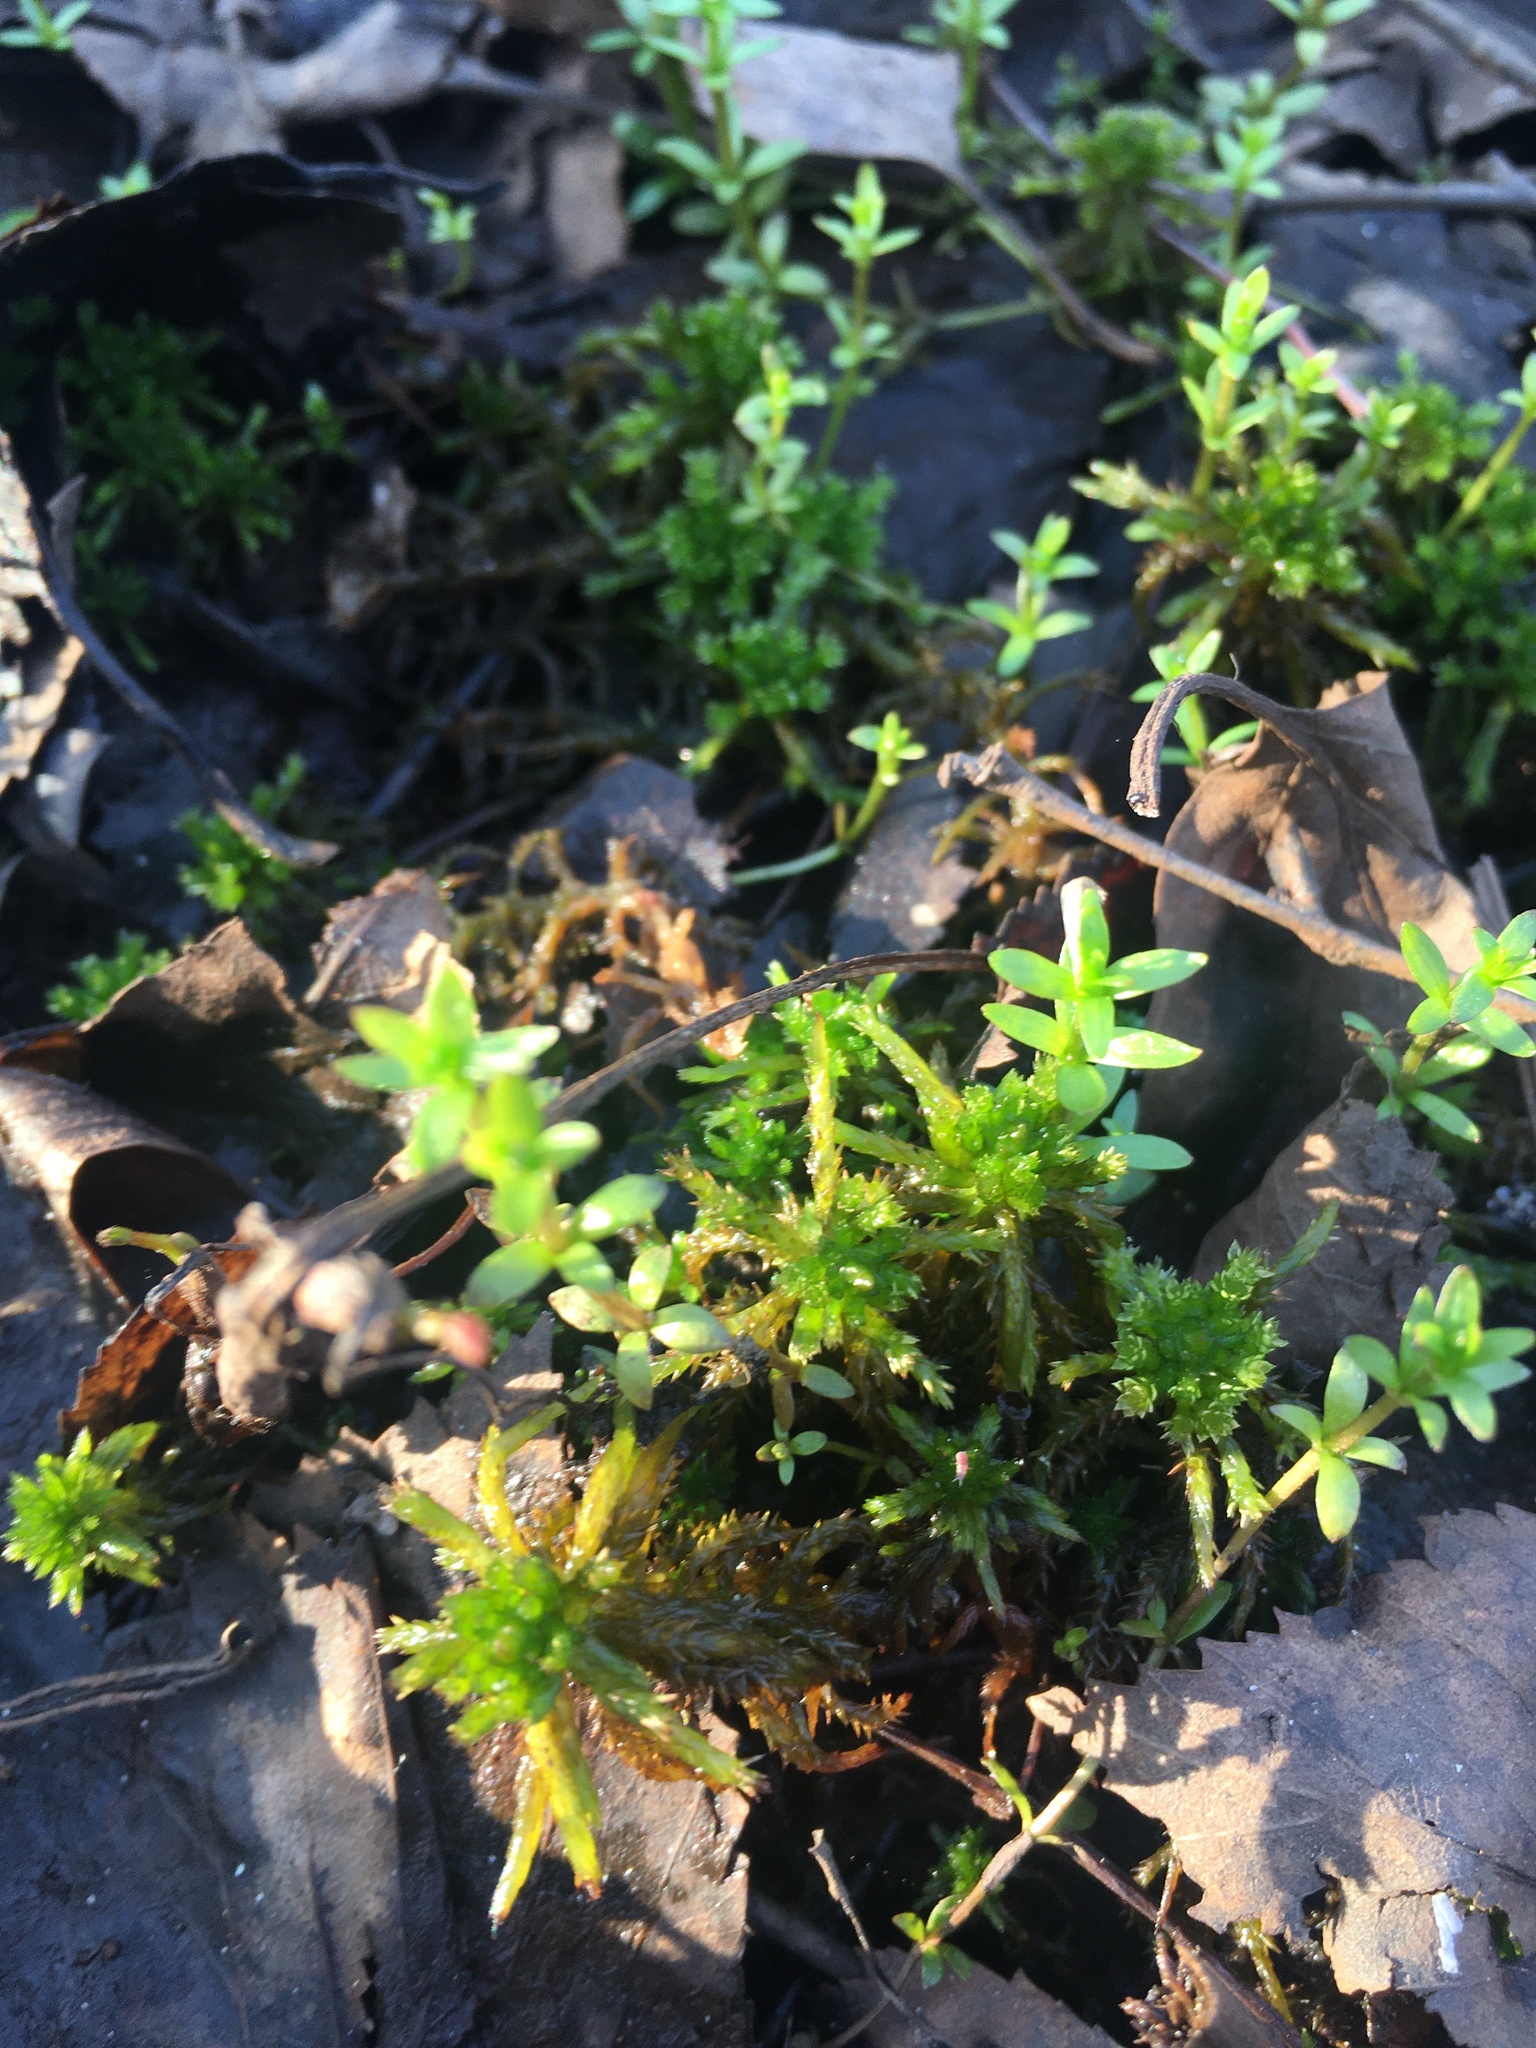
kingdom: Plantae
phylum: Tracheophyta
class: Magnoliopsida
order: Gentianales
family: Rubiaceae
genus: Galium
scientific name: Galium mollugo
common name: Hedge bedstraw
